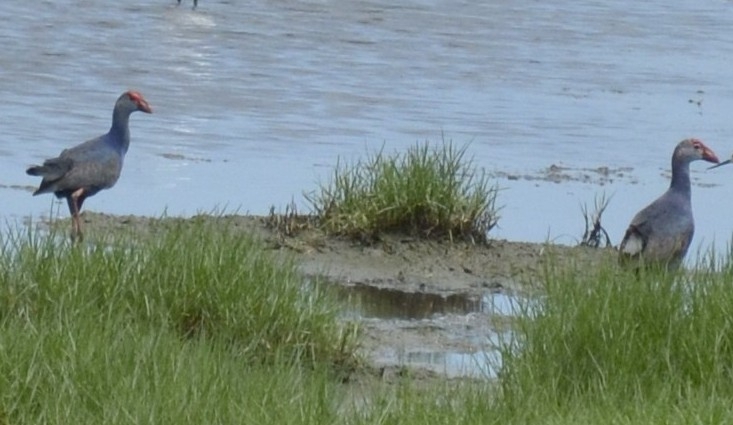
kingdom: Animalia
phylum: Chordata
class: Aves
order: Gruiformes
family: Rallidae
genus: Porphyrio
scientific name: Porphyrio porphyrio
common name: Purple swamphen
